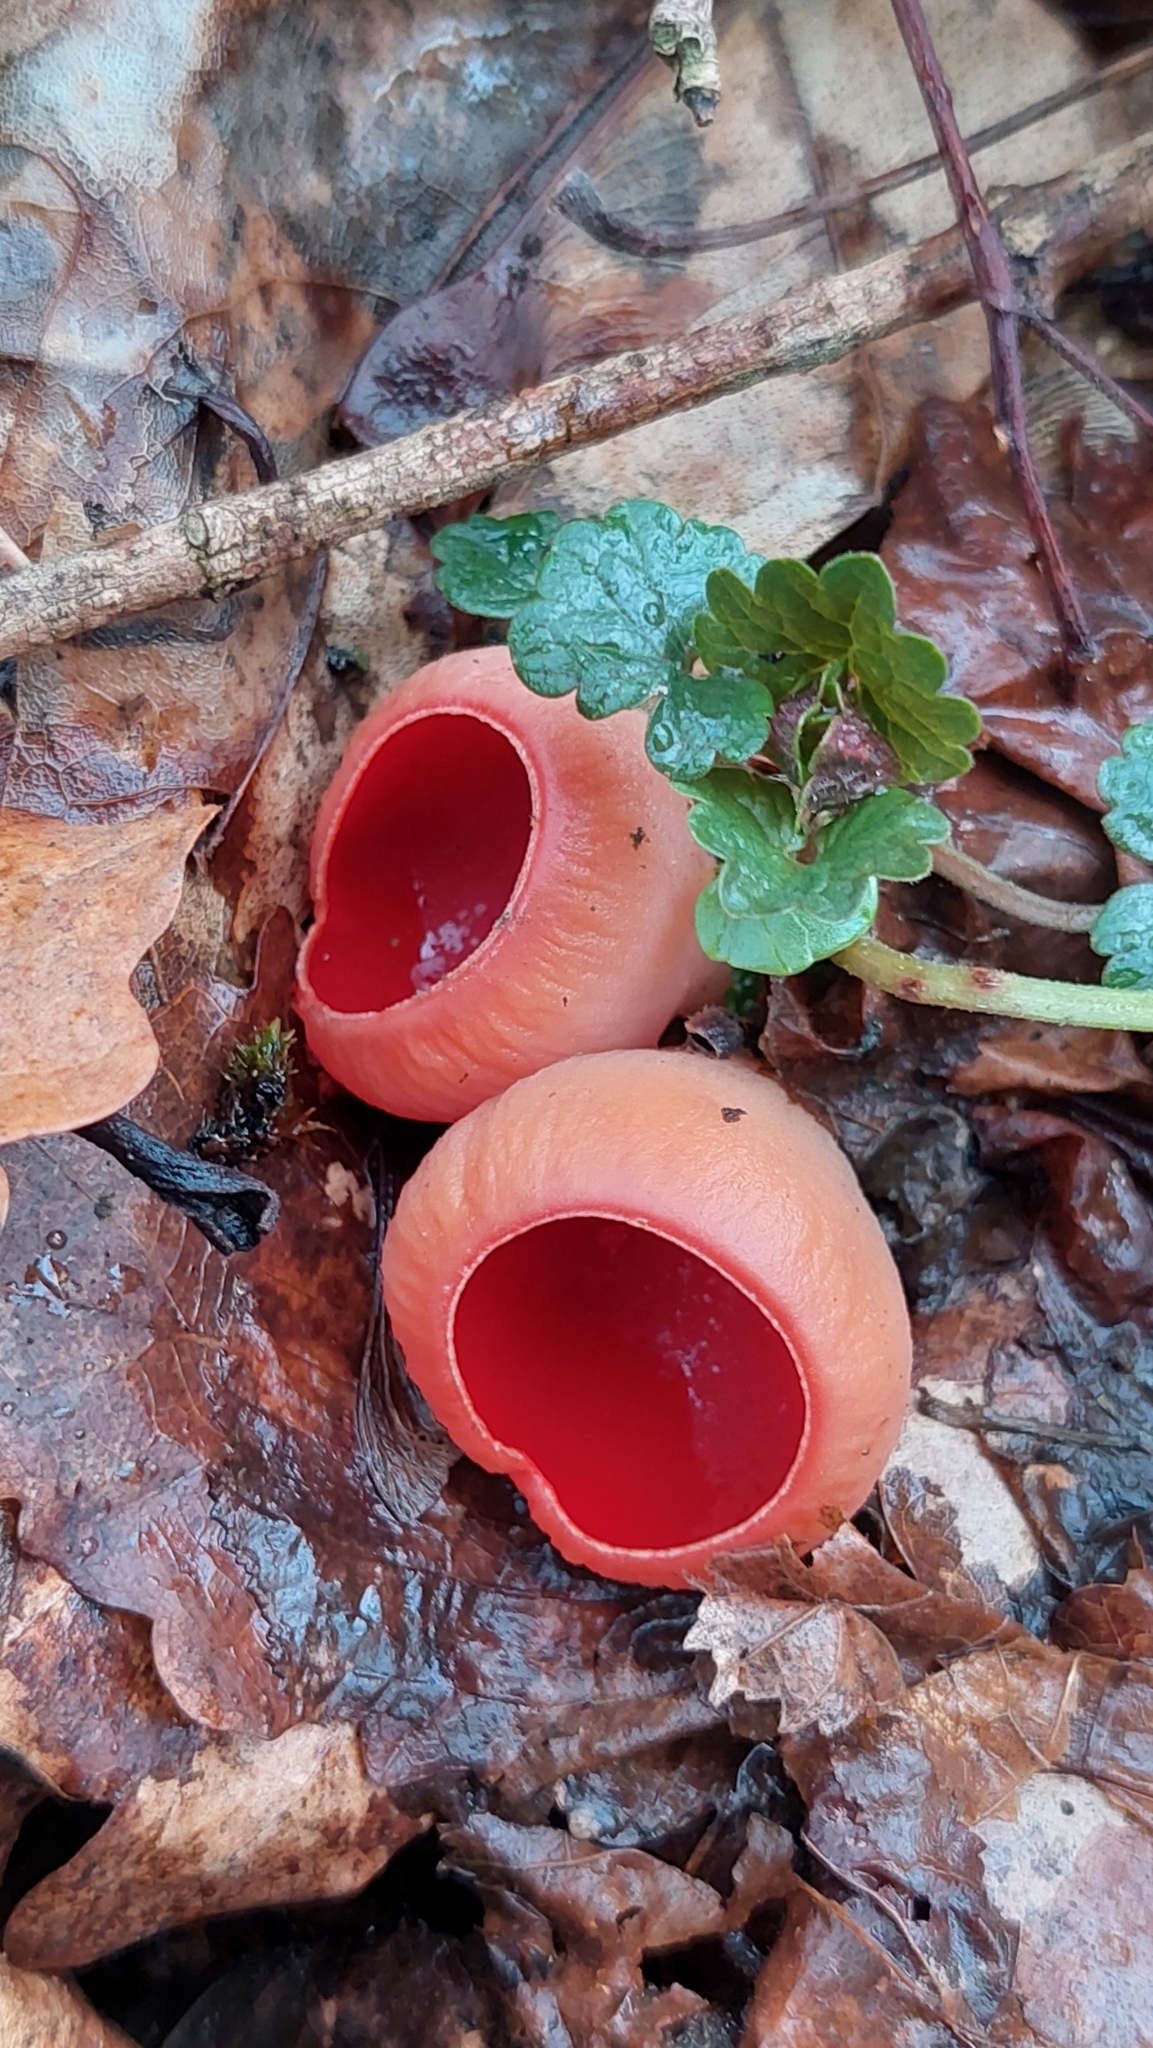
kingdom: Fungi
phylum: Ascomycota
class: Pezizomycetes
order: Pezizales
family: Sarcoscyphaceae
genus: Sarcoscypha
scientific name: Sarcoscypha coccinea
